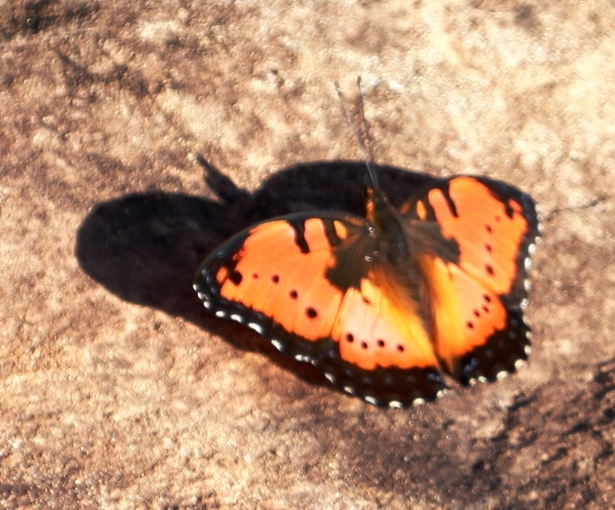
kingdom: Animalia
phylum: Arthropoda
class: Insecta
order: Lepidoptera
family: Nymphalidae
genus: Precis
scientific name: Precis octavia
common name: Gaudy commodore
